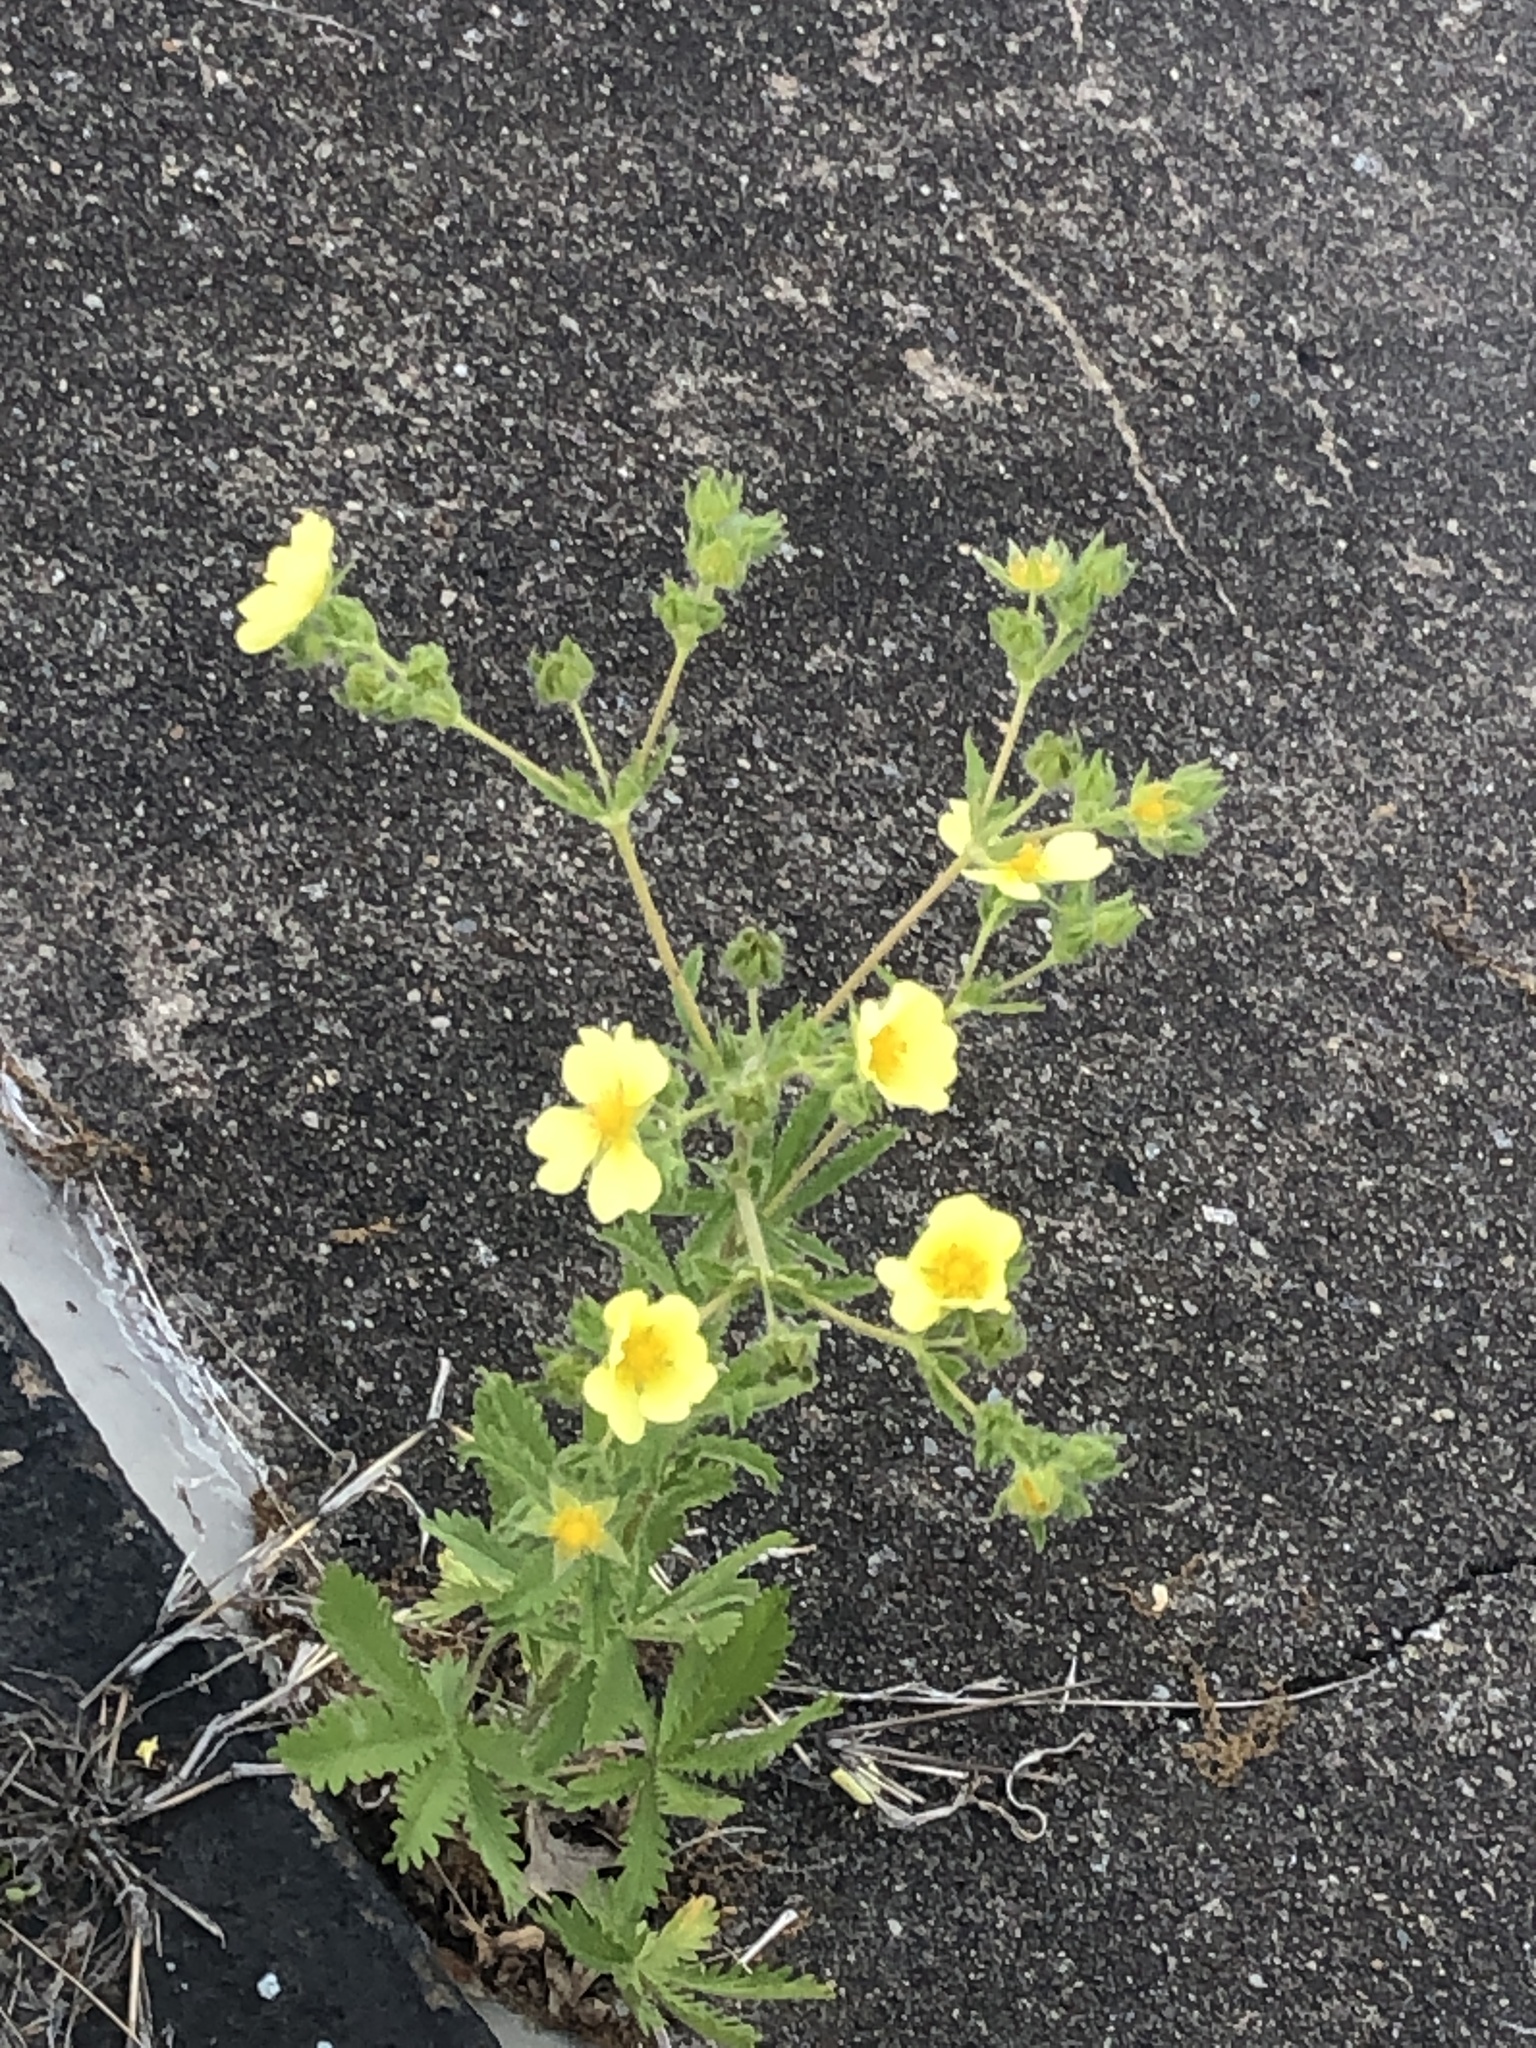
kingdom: Plantae
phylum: Tracheophyta
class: Magnoliopsida
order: Rosales
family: Rosaceae
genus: Potentilla
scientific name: Potentilla recta
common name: Sulphur cinquefoil
